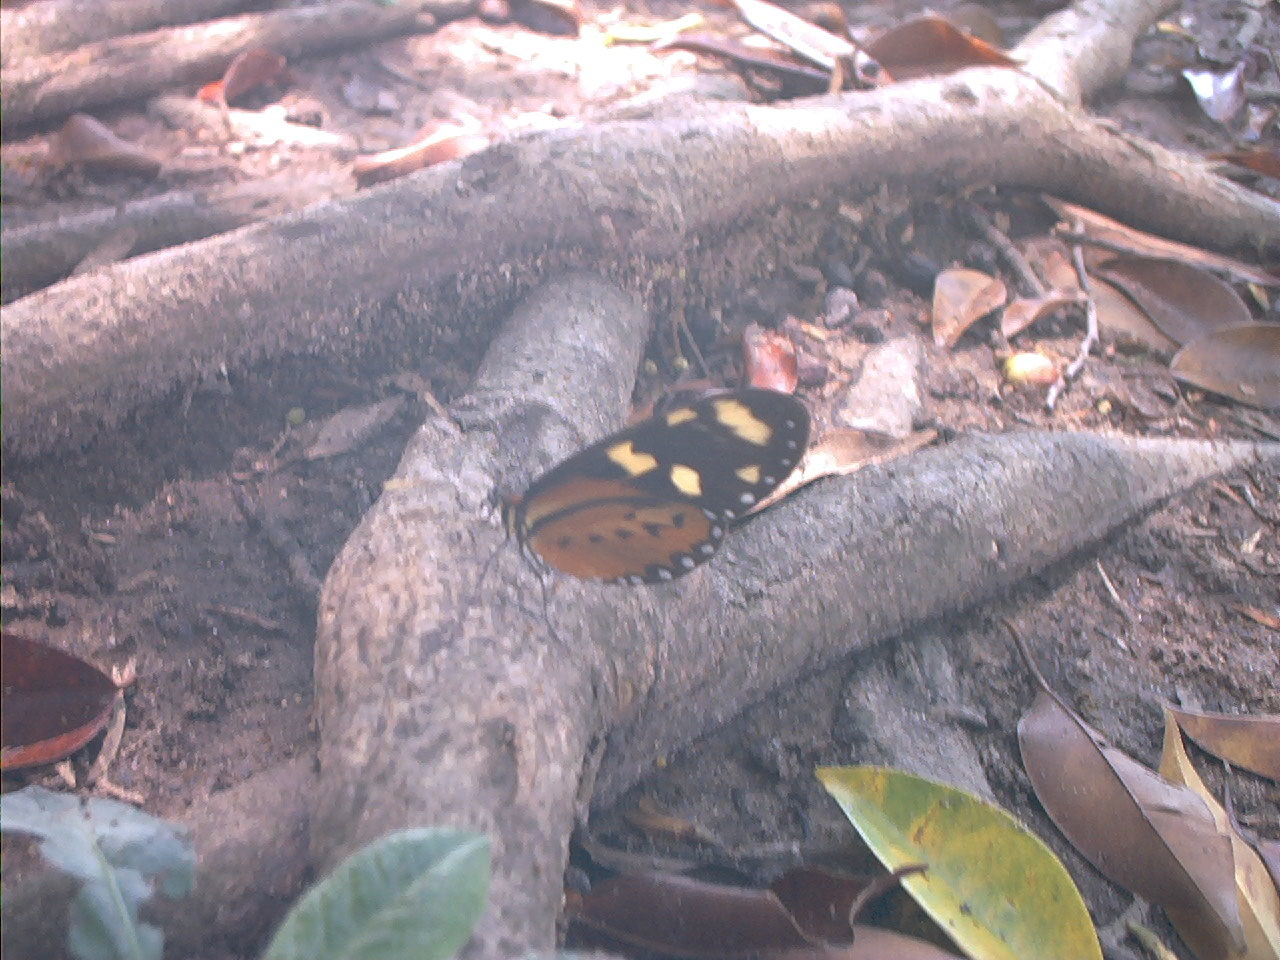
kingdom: Animalia
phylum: Arthropoda
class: Insecta
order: Lepidoptera
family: Nymphalidae
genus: Mechanitis
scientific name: Mechanitis lysimnia
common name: Lysimnia tigerwing
